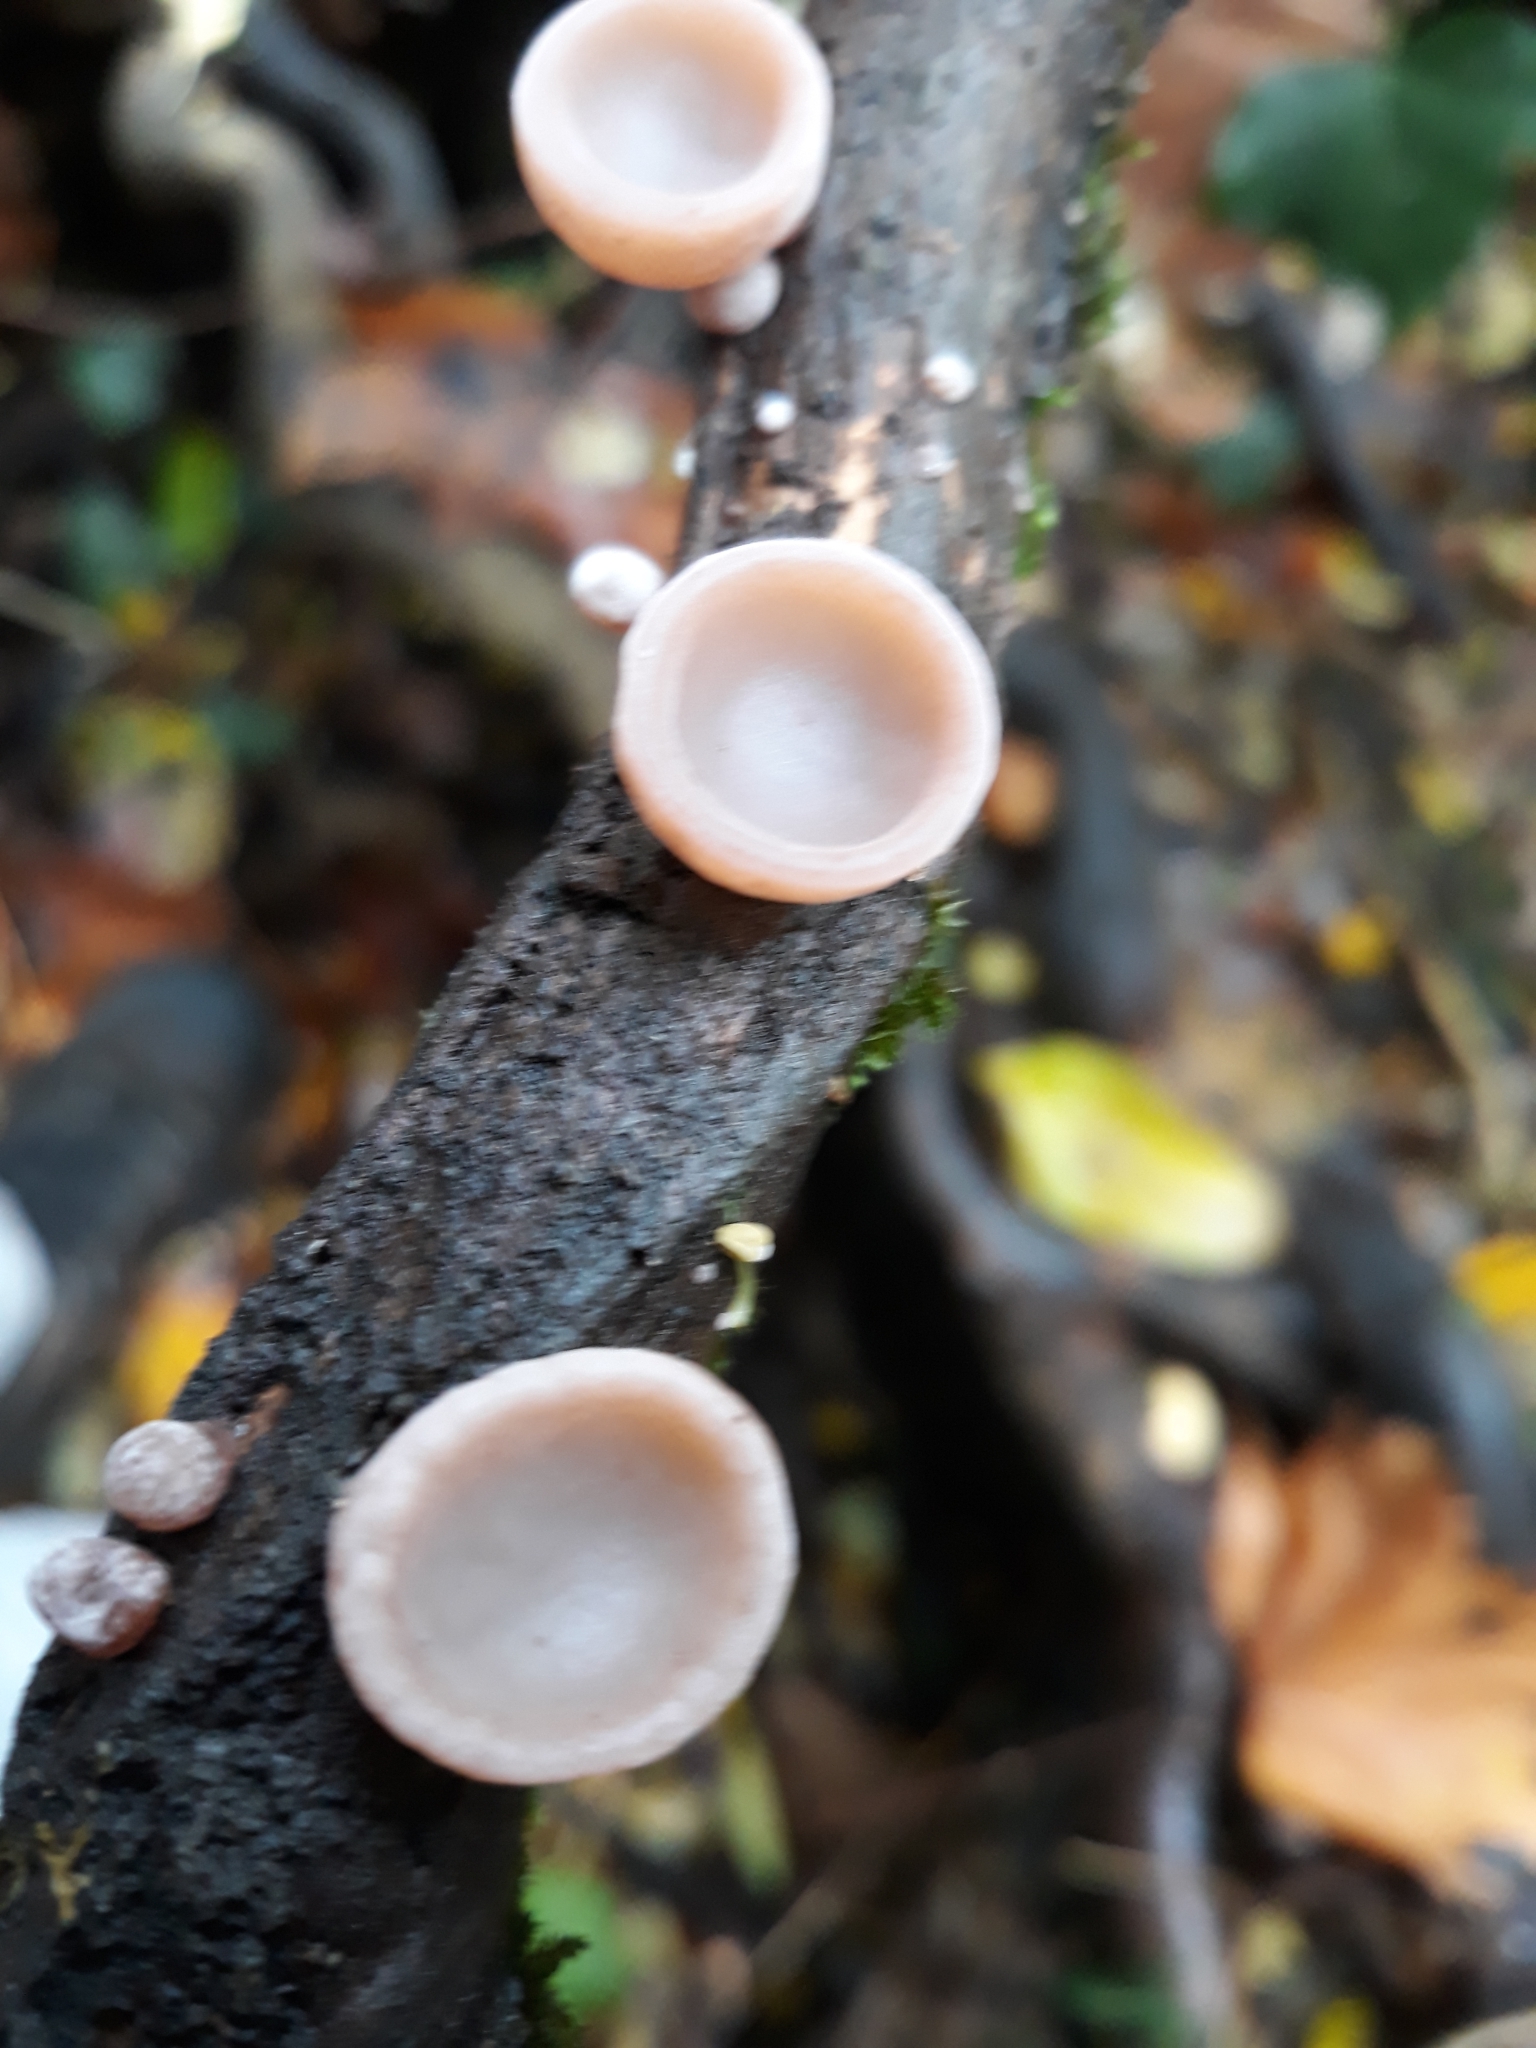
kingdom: Fungi
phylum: Basidiomycota
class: Agaricomycetes
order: Auriculariales
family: Auriculariaceae
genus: Auricularia
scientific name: Auricularia auricula-judae
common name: Jelly ear
